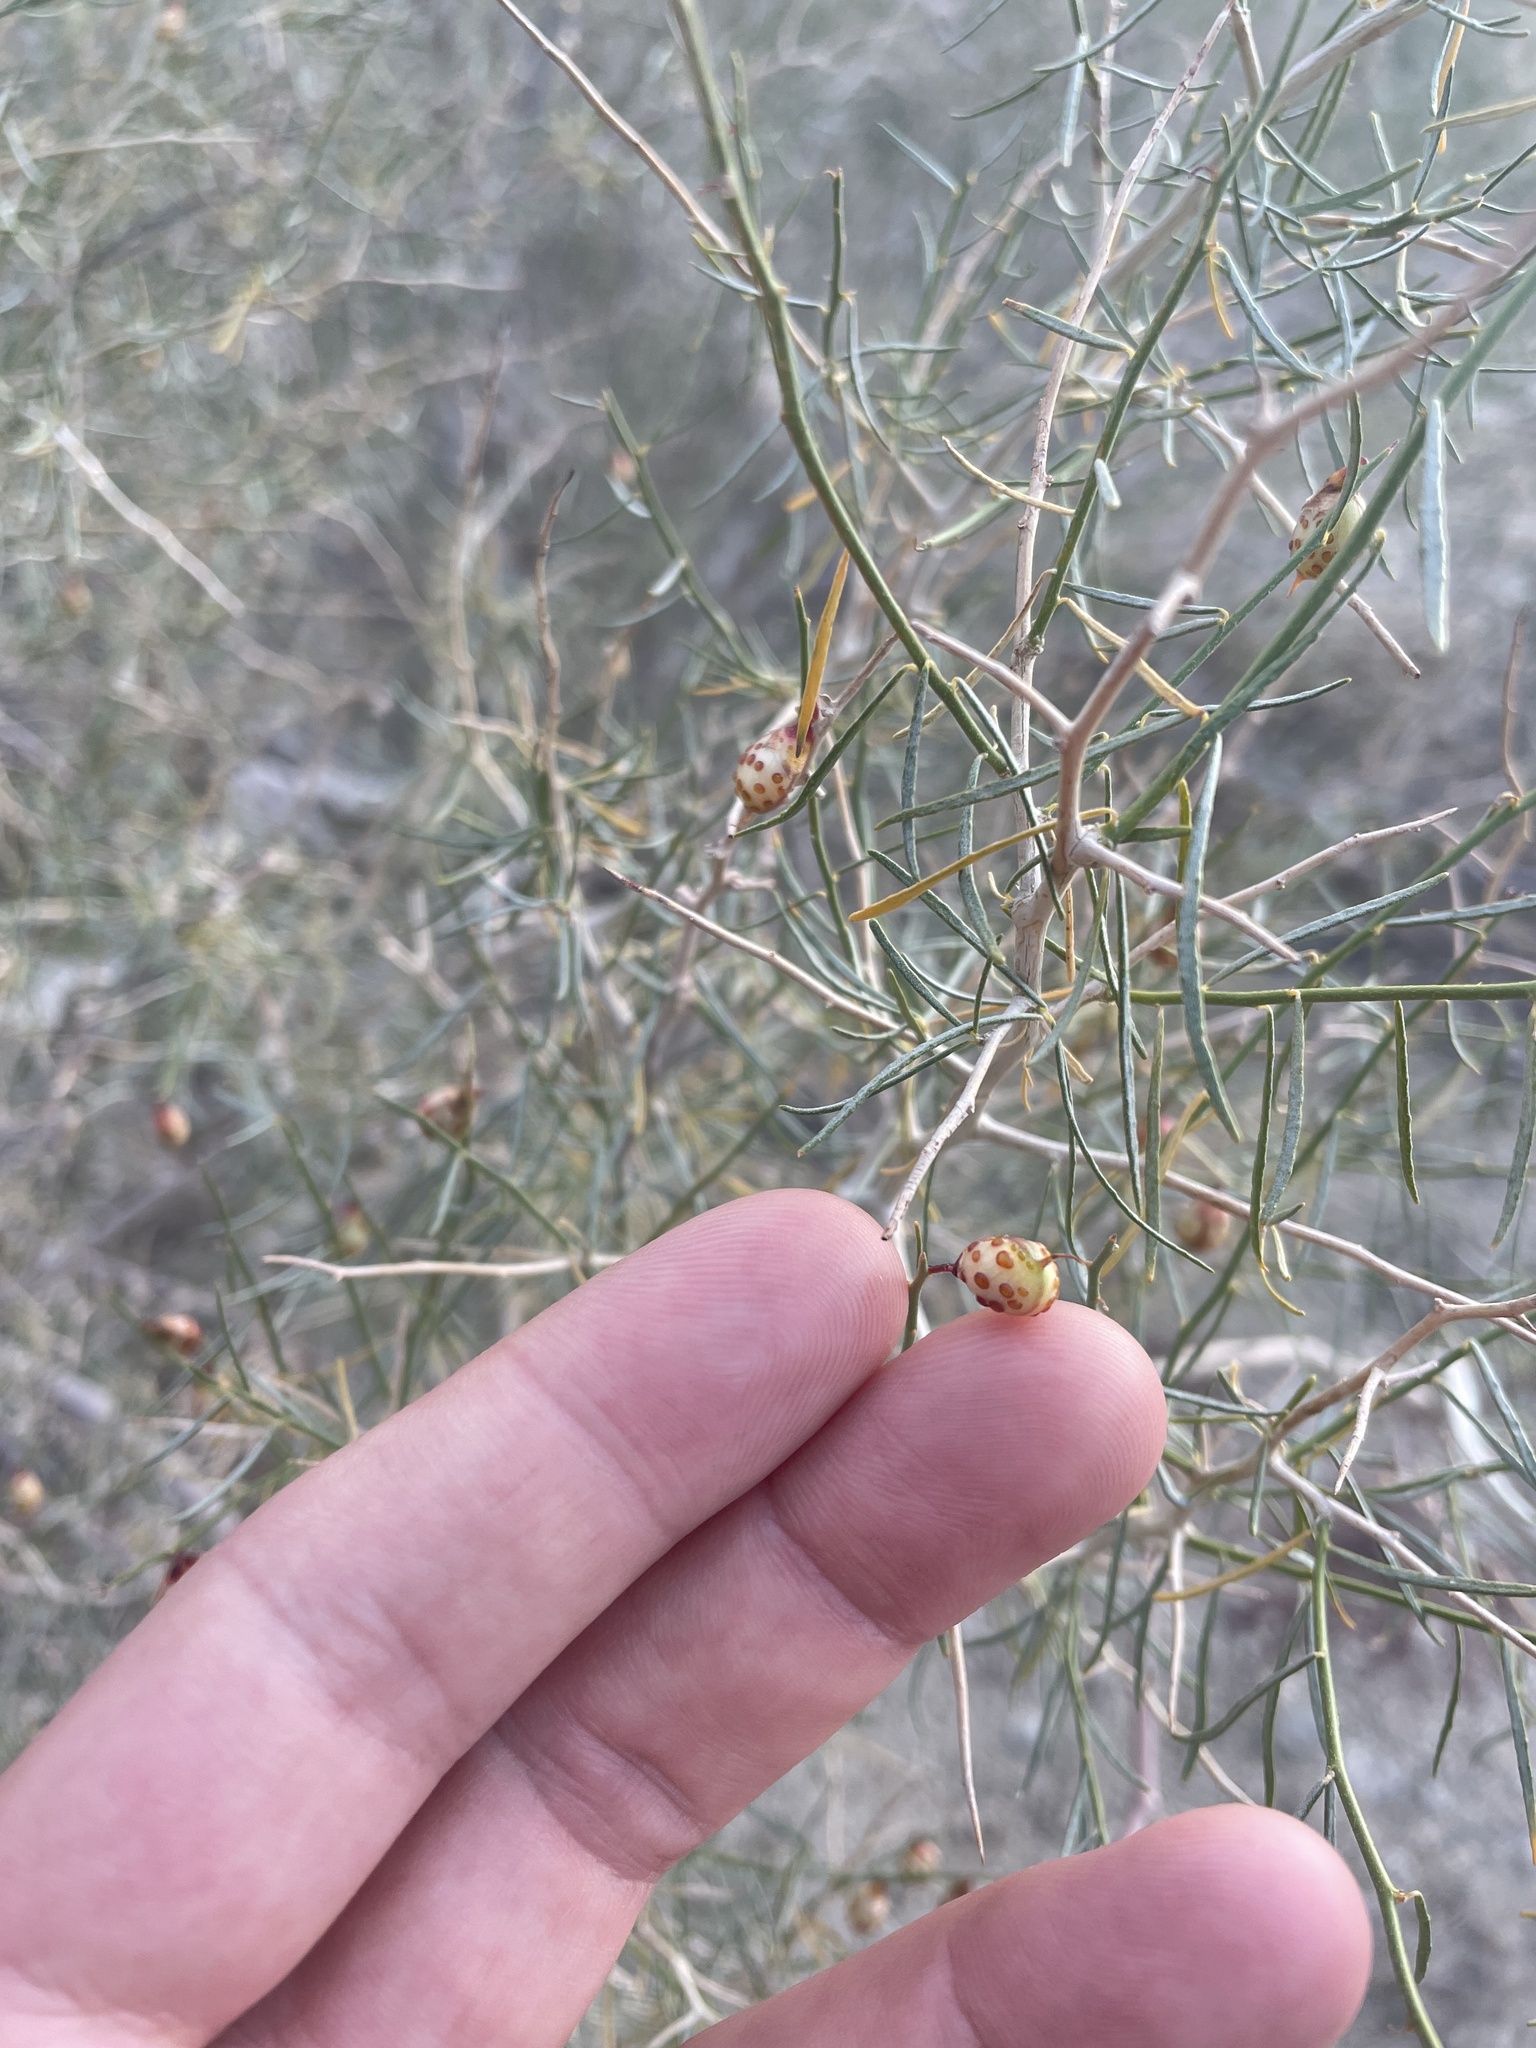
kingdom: Plantae
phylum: Tracheophyta
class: Magnoliopsida
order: Fabales
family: Fabaceae
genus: Psorothamnus
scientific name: Psorothamnus schottii
